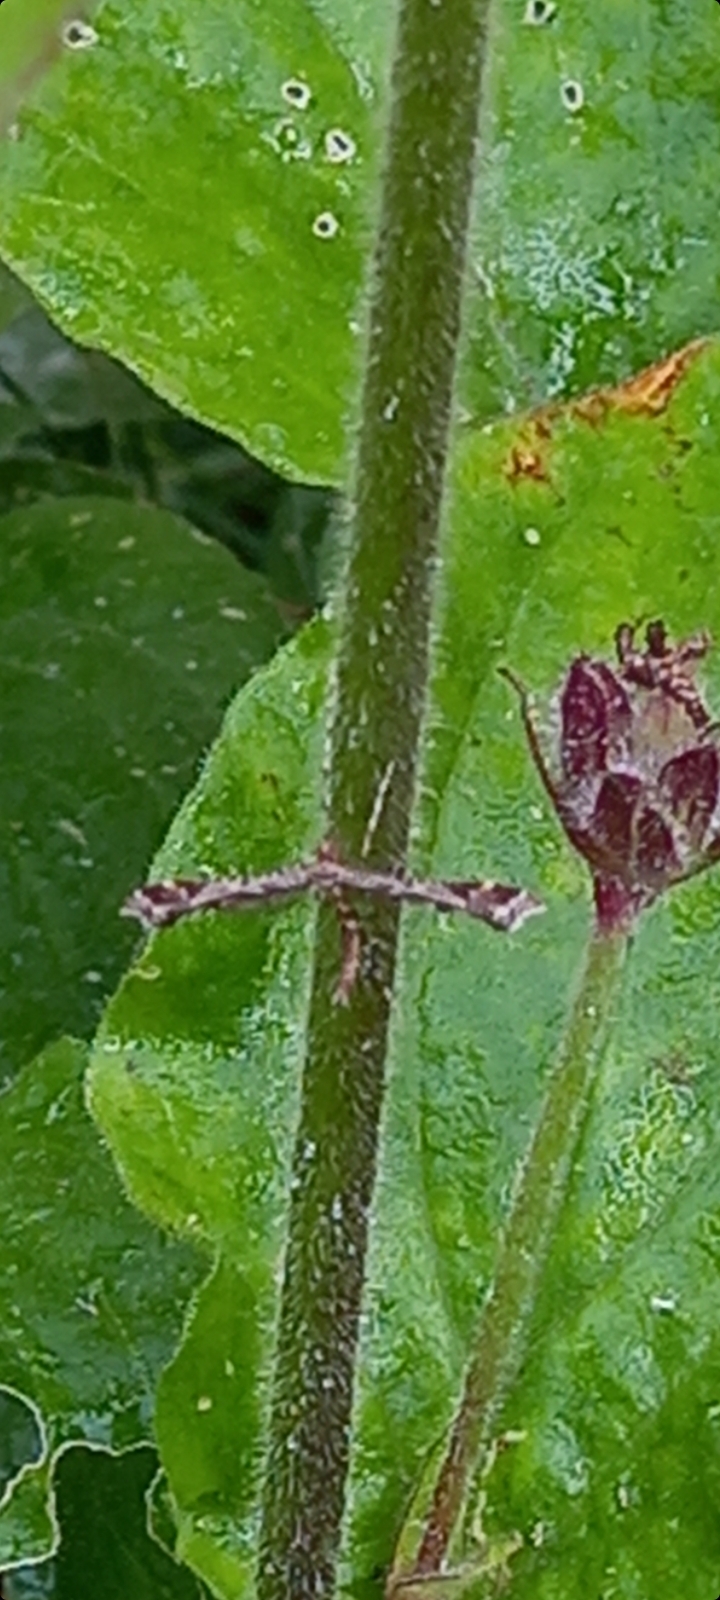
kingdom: Animalia
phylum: Arthropoda
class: Insecta
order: Lepidoptera
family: Pterophoridae
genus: Amblyptilia
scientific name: Amblyptilia acanthadactyla
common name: Beautiful plume
